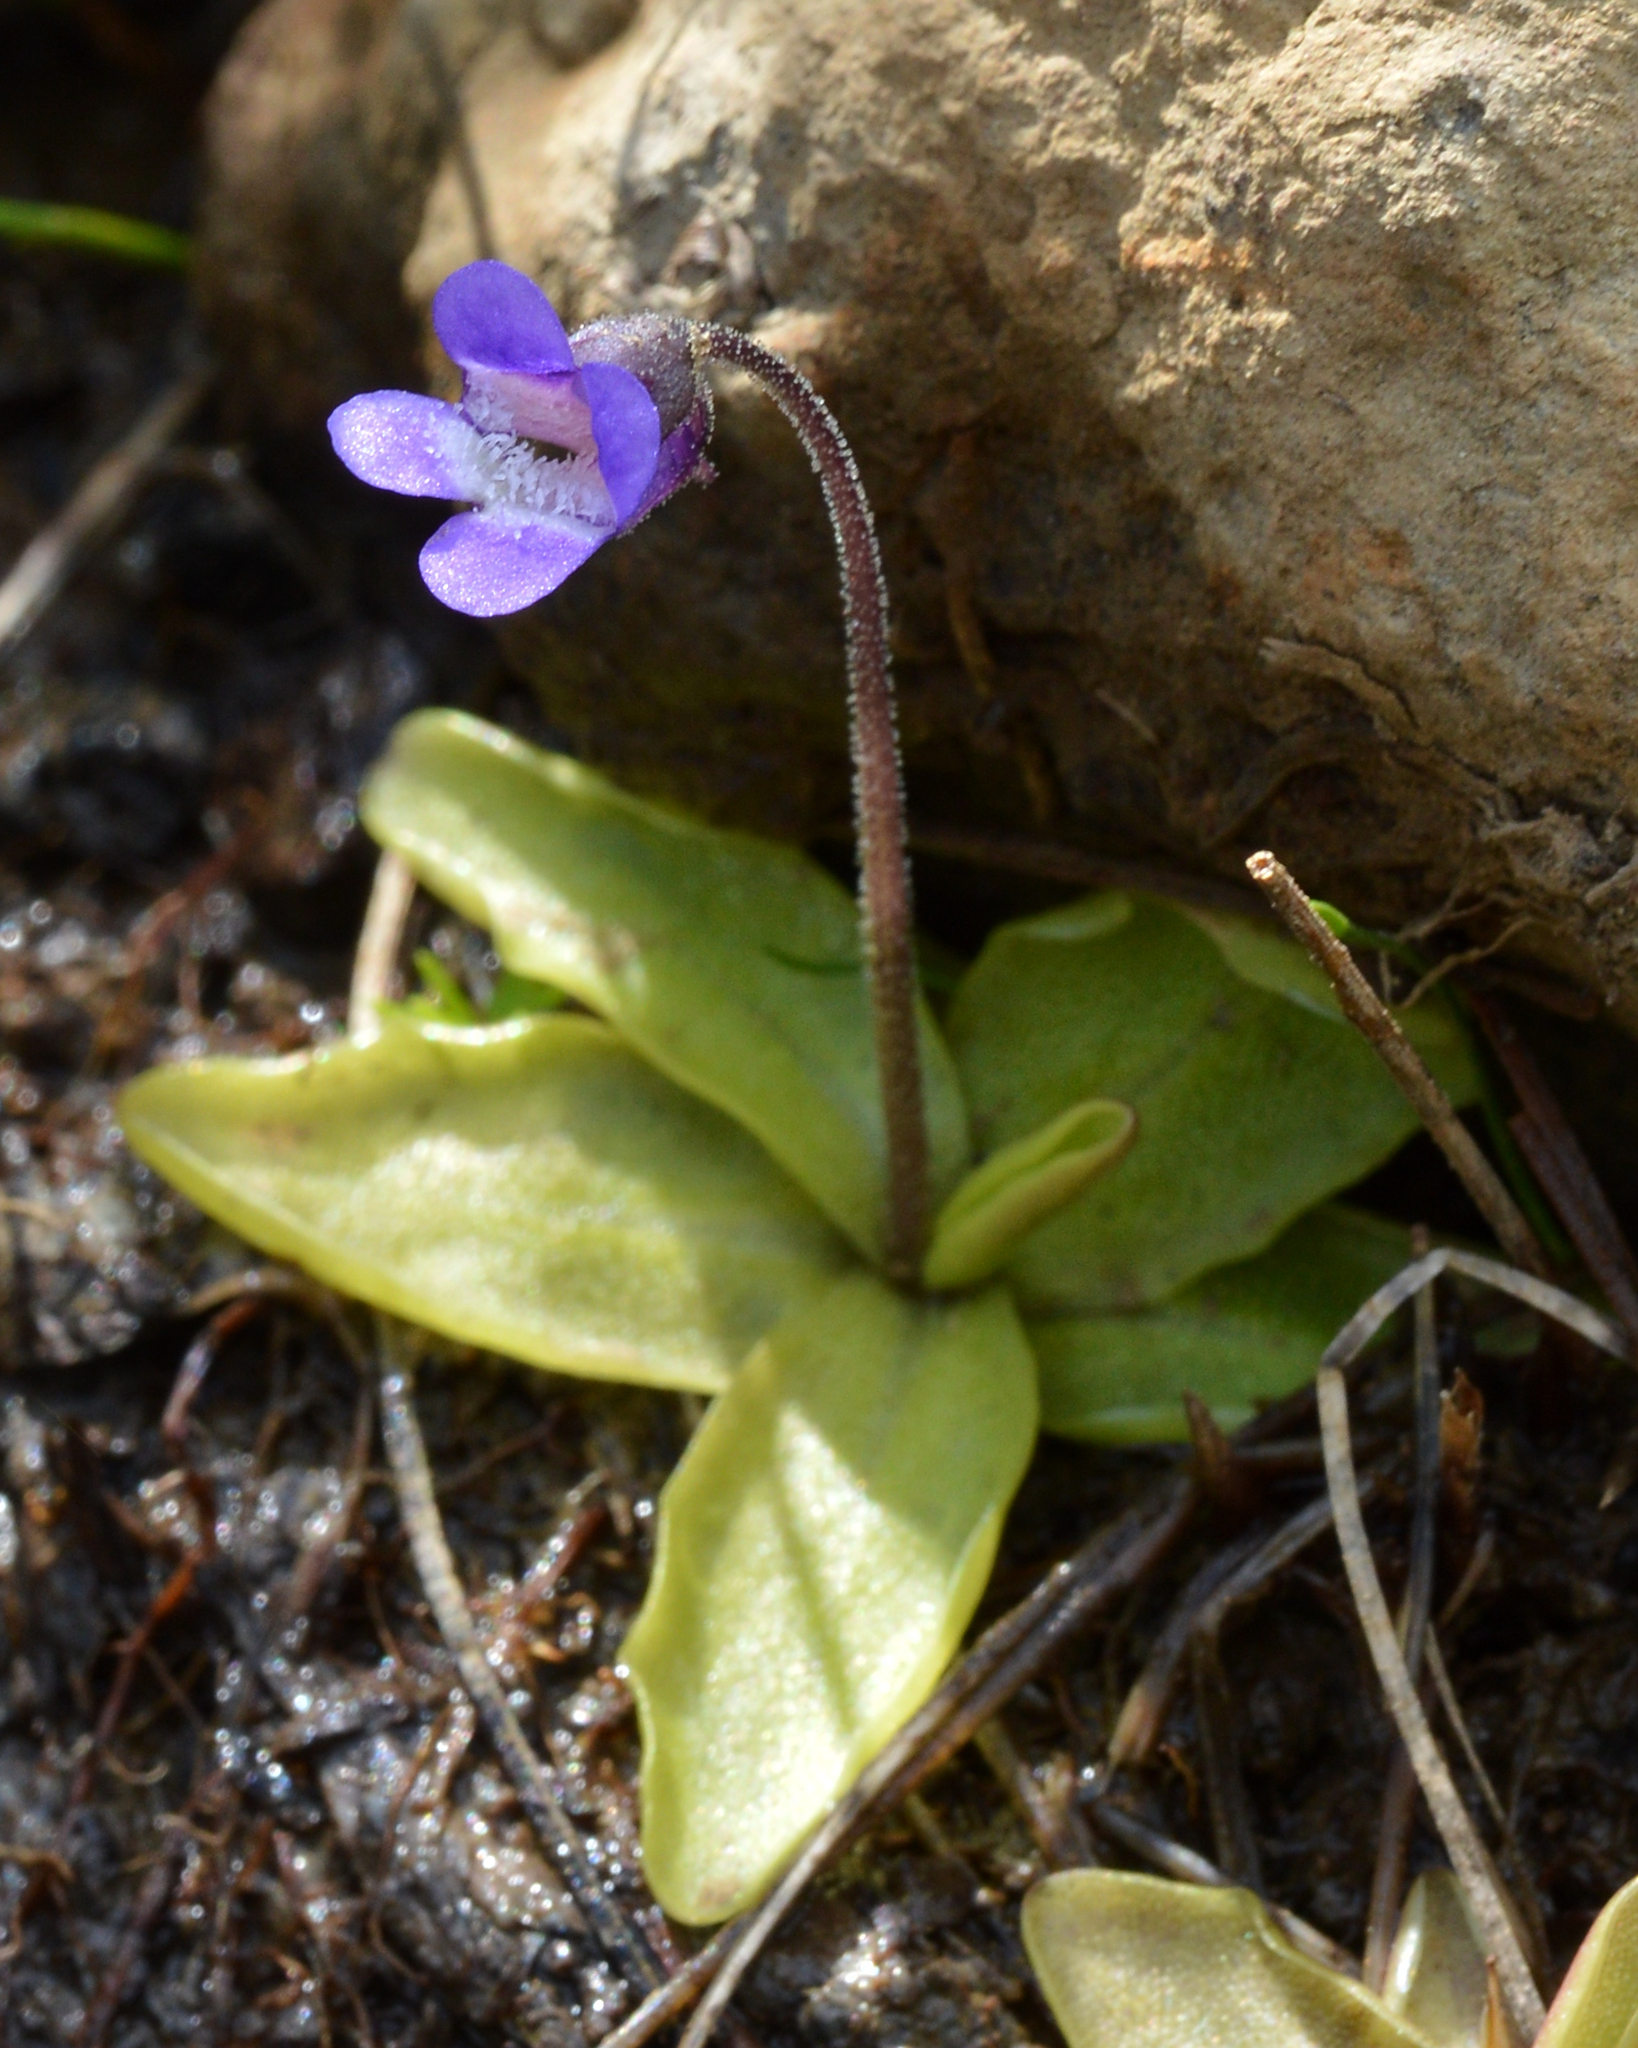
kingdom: Plantae
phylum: Tracheophyta
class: Magnoliopsida
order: Lamiales
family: Lentibulariaceae
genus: Pinguicula
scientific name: Pinguicula vulgaris
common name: Common butterwort
